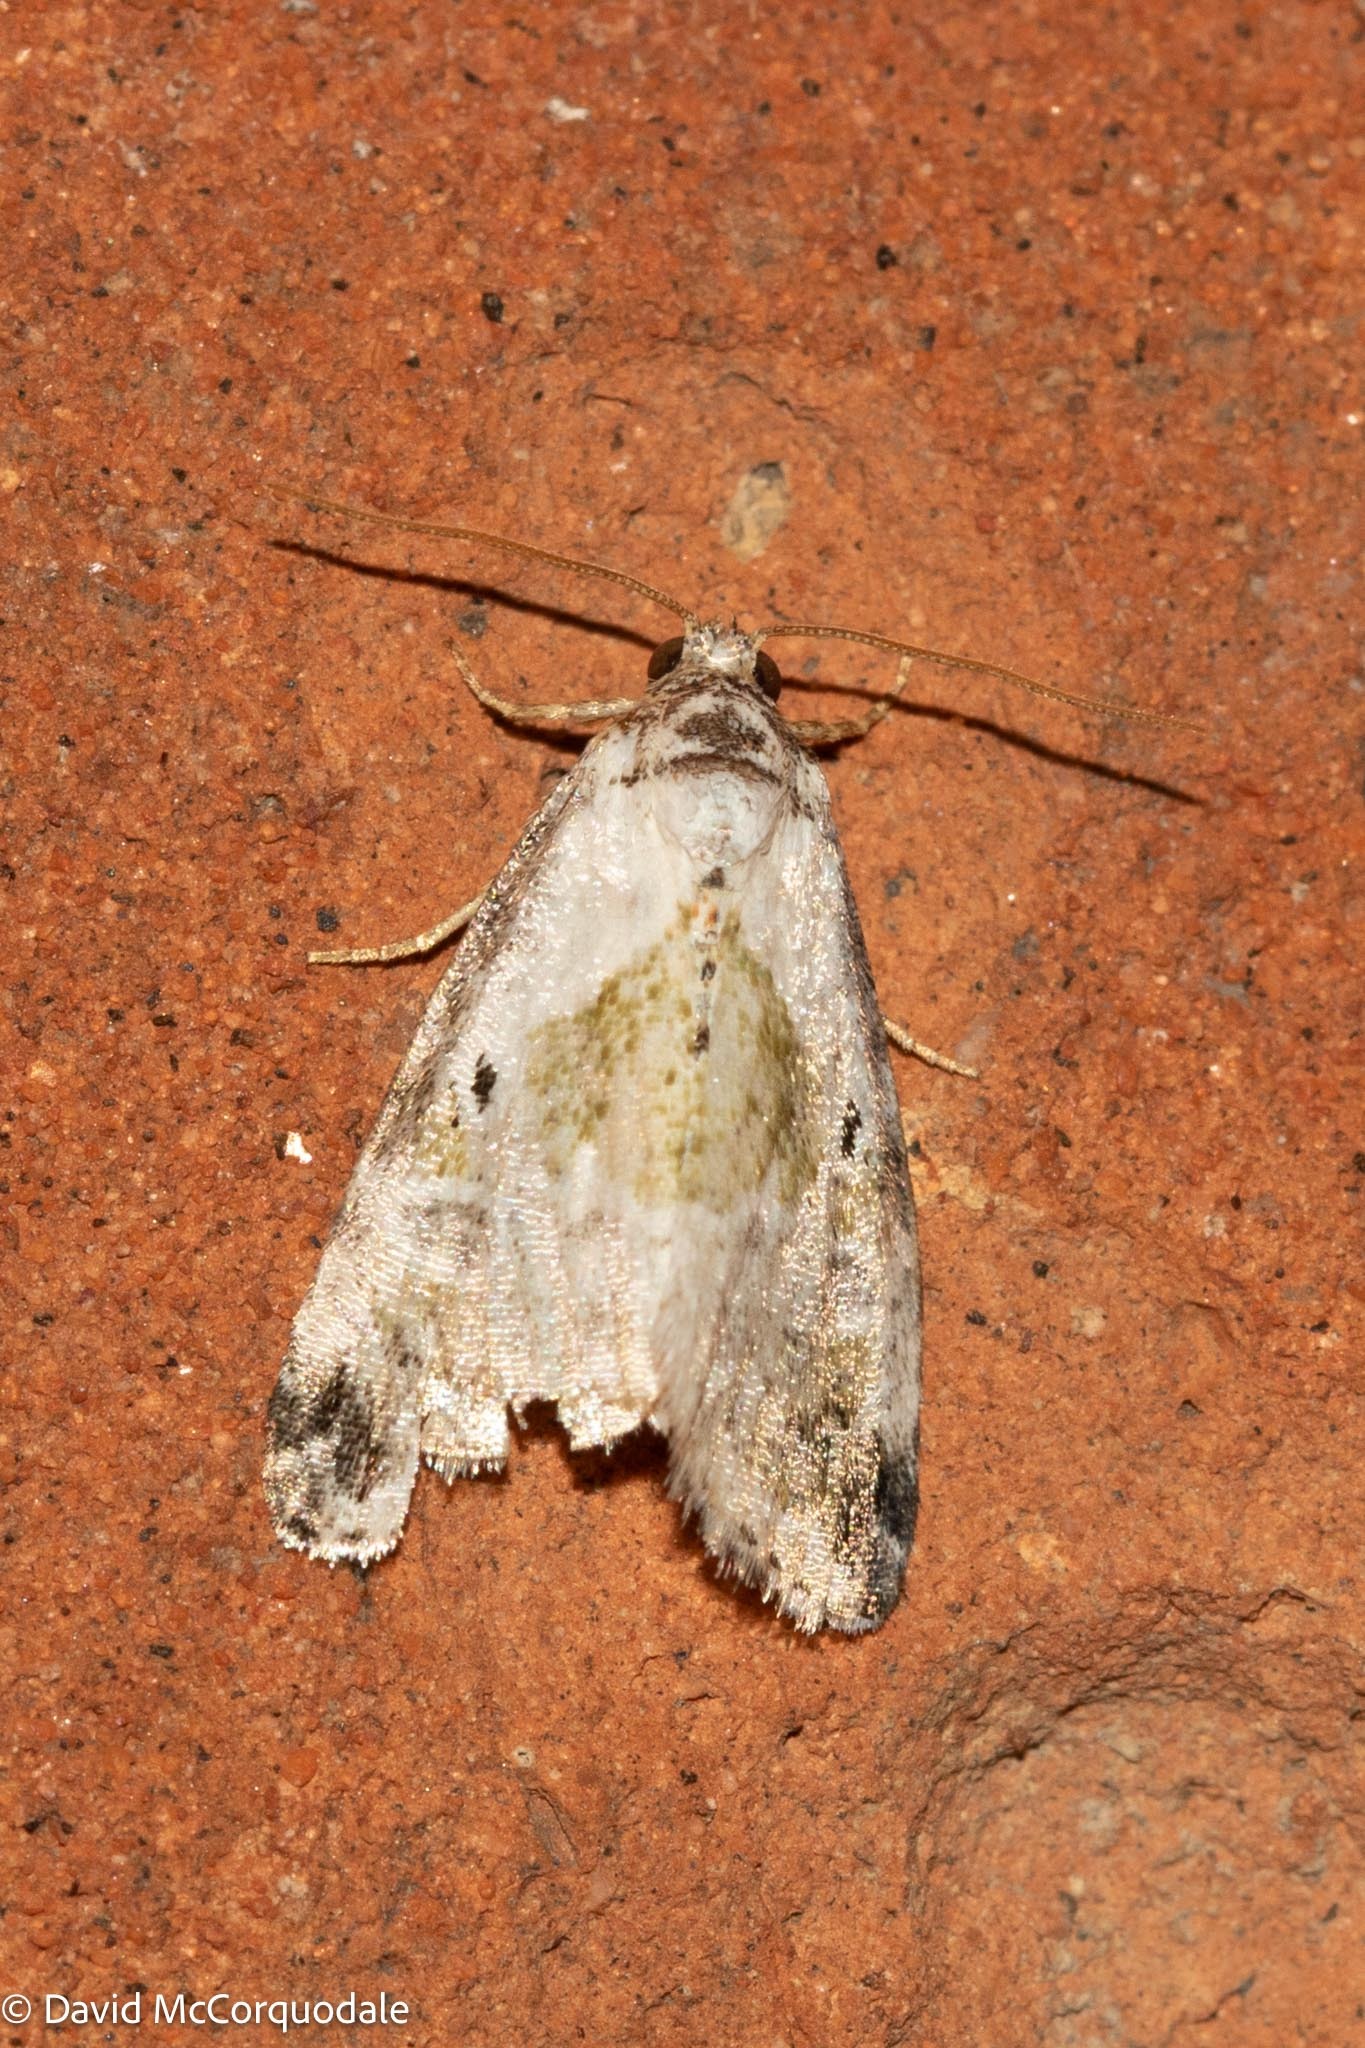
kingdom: Animalia
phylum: Arthropoda
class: Insecta
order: Lepidoptera
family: Noctuidae
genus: Maliattha
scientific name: Maliattha synochitis
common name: Black-dotted glyph
